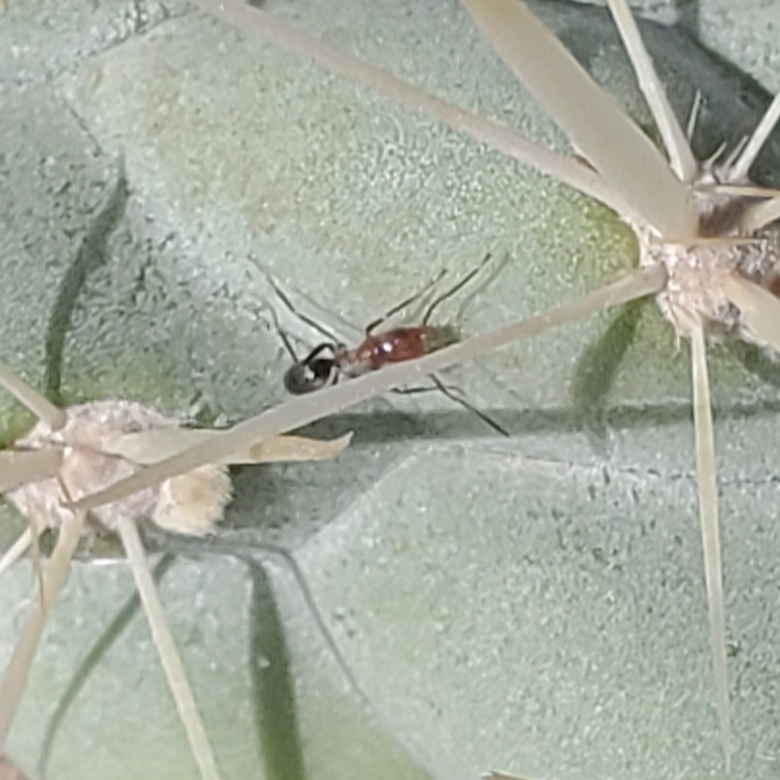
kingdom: Animalia
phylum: Arthropoda
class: Insecta
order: Hymenoptera
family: Formicidae
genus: Dorymyrmex
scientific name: Dorymyrmex bicolor
